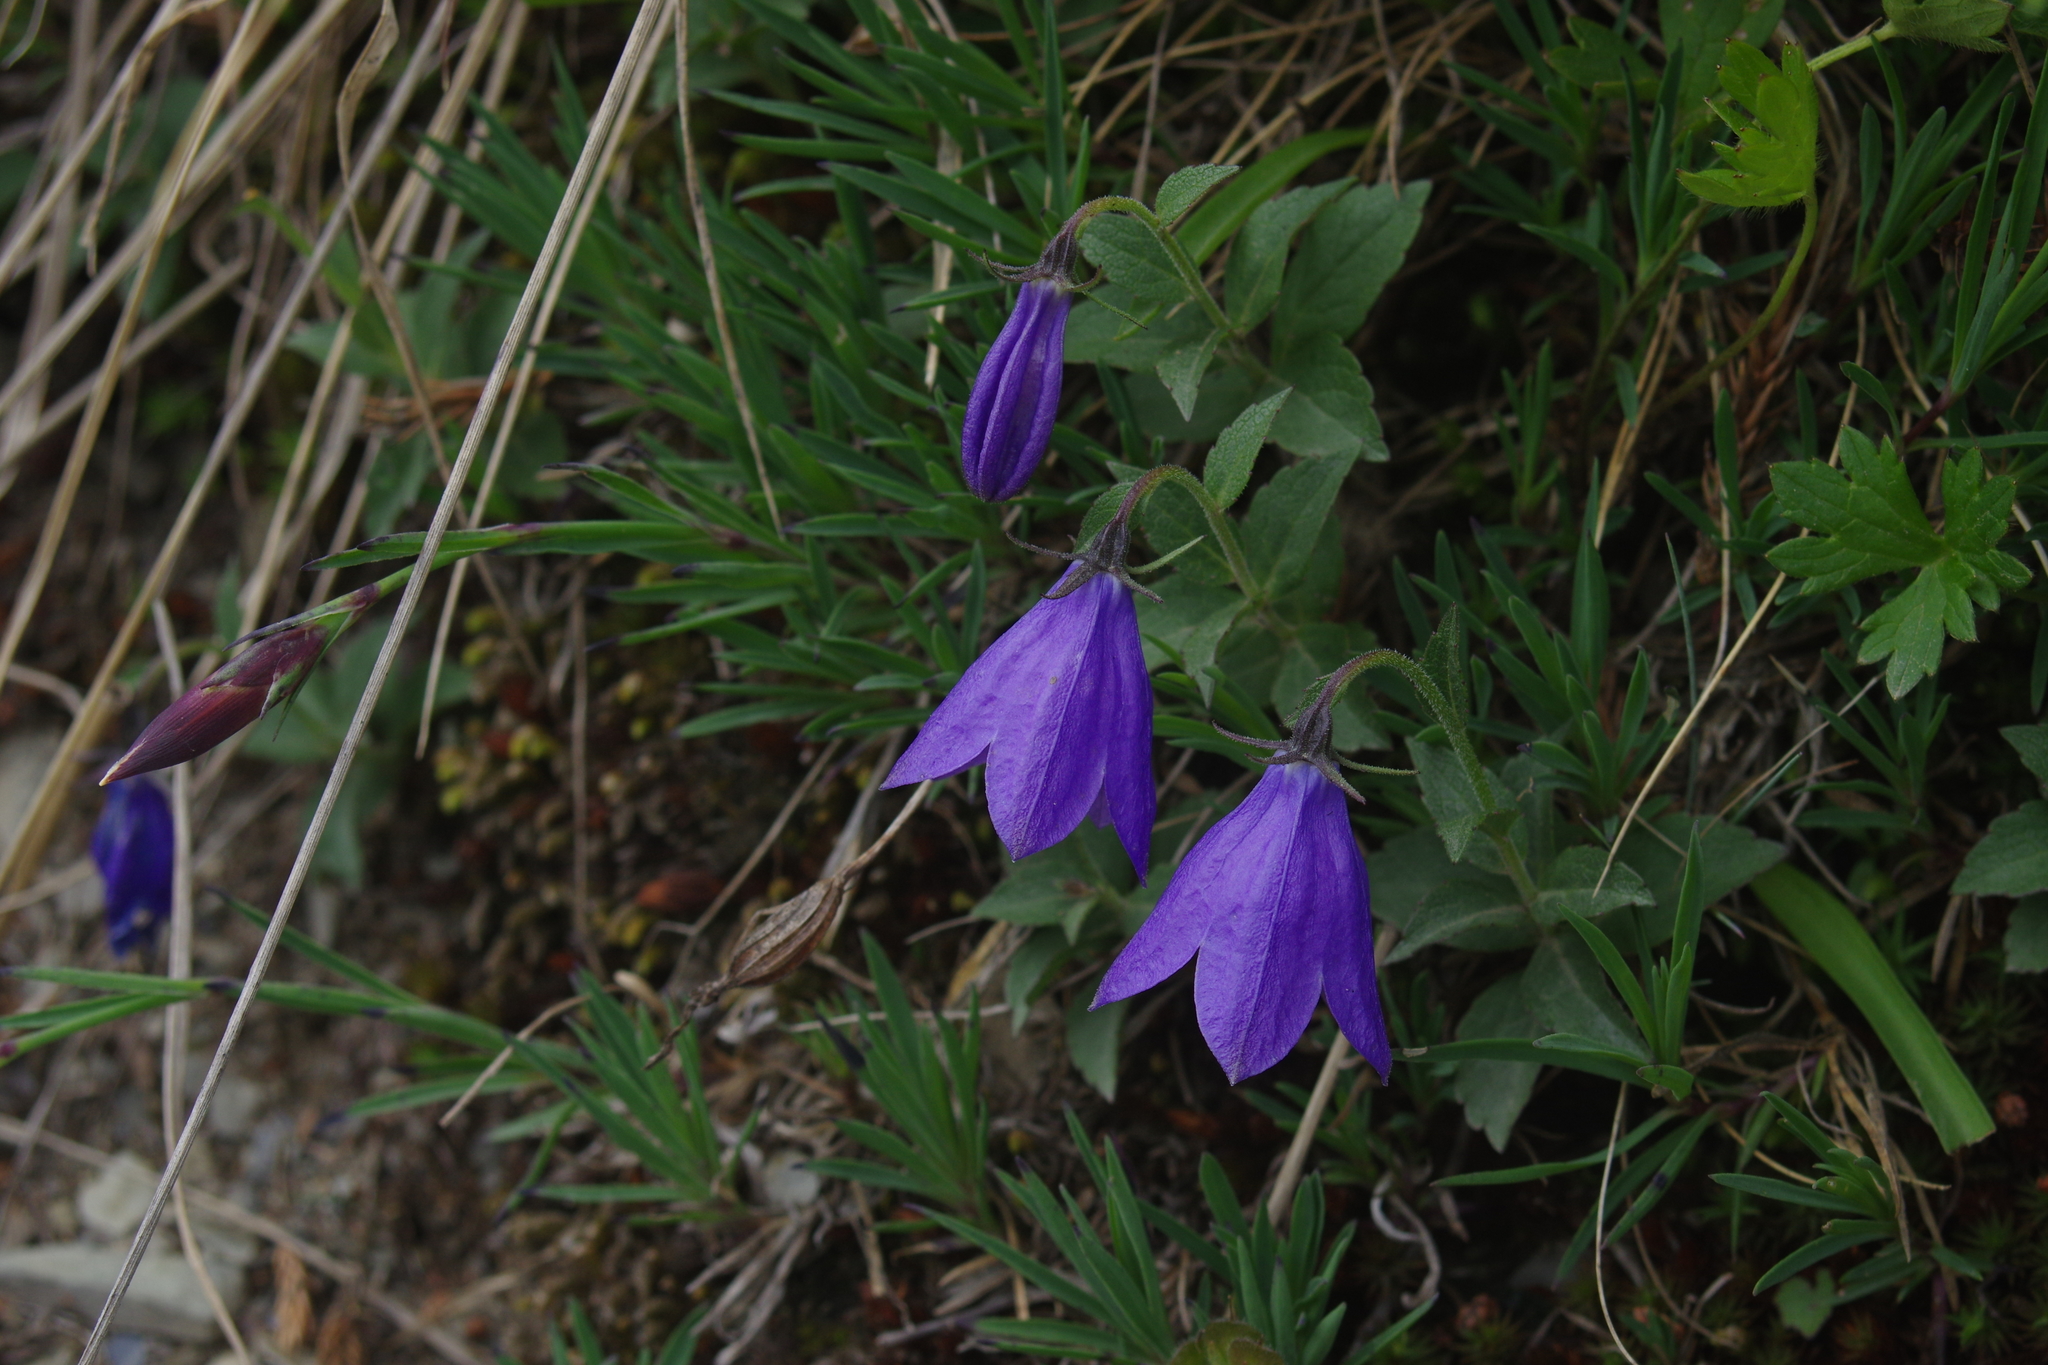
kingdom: Plantae
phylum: Tracheophyta
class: Magnoliopsida
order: Asterales
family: Campanulaceae
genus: Adenophora
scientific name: Adenophora morrisonensis
